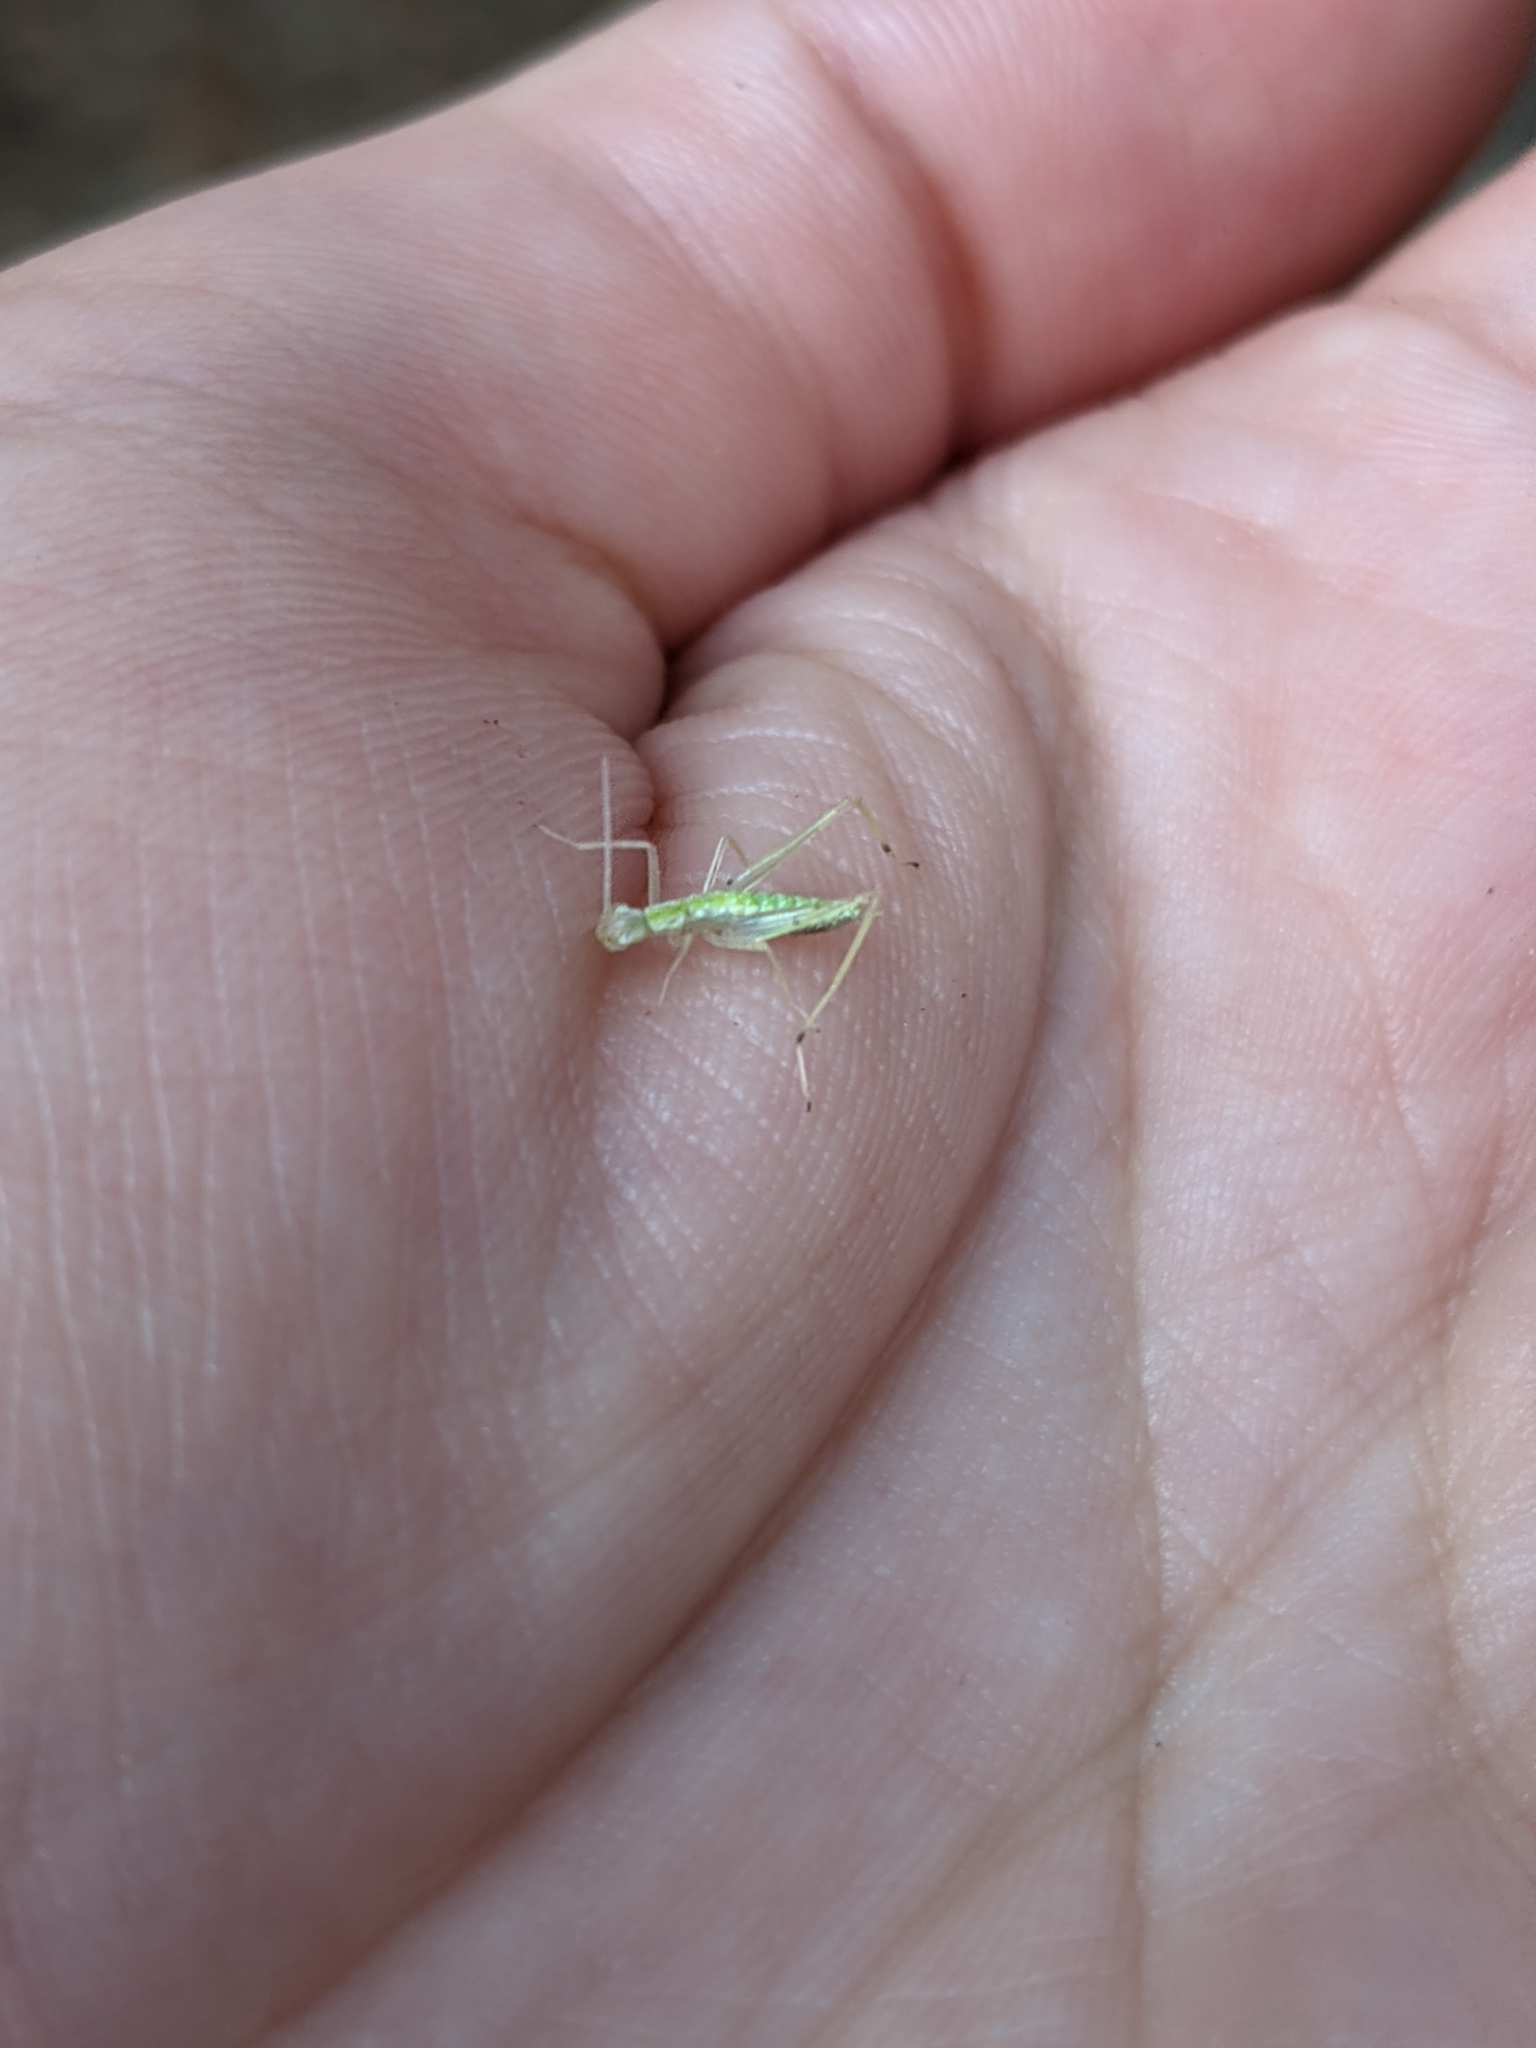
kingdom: Animalia
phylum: Arthropoda
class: Insecta
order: Orthoptera
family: Gryllidae
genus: Oecanthus
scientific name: Oecanthus niveus
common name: Narrow-winged tree cricket
